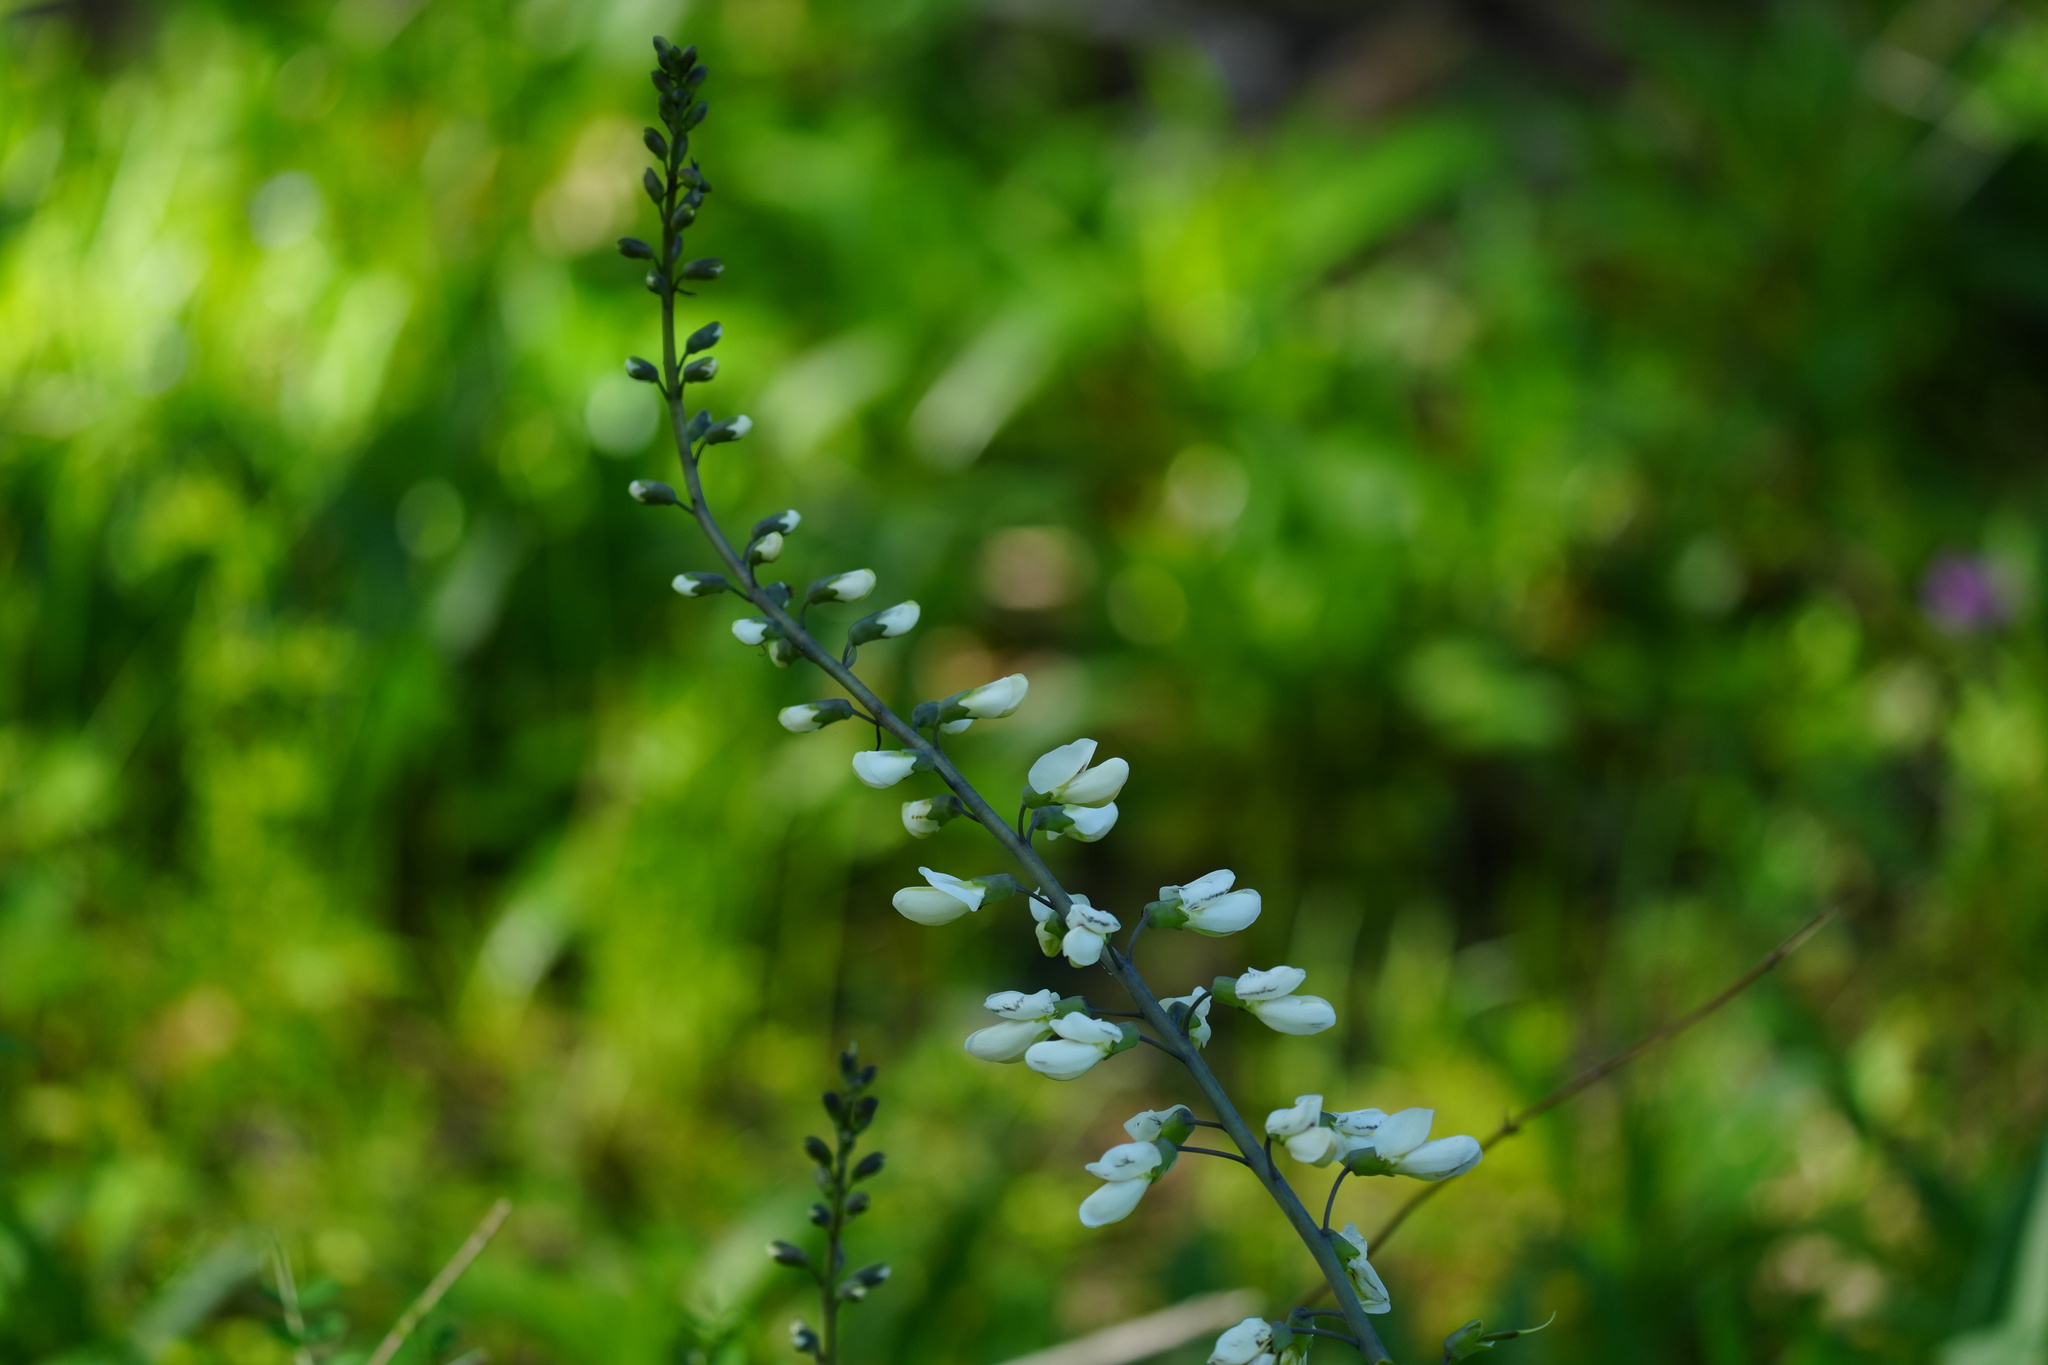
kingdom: Plantae
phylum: Tracheophyta
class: Magnoliopsida
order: Fabales
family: Fabaceae
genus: Baptisia
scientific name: Baptisia alba
